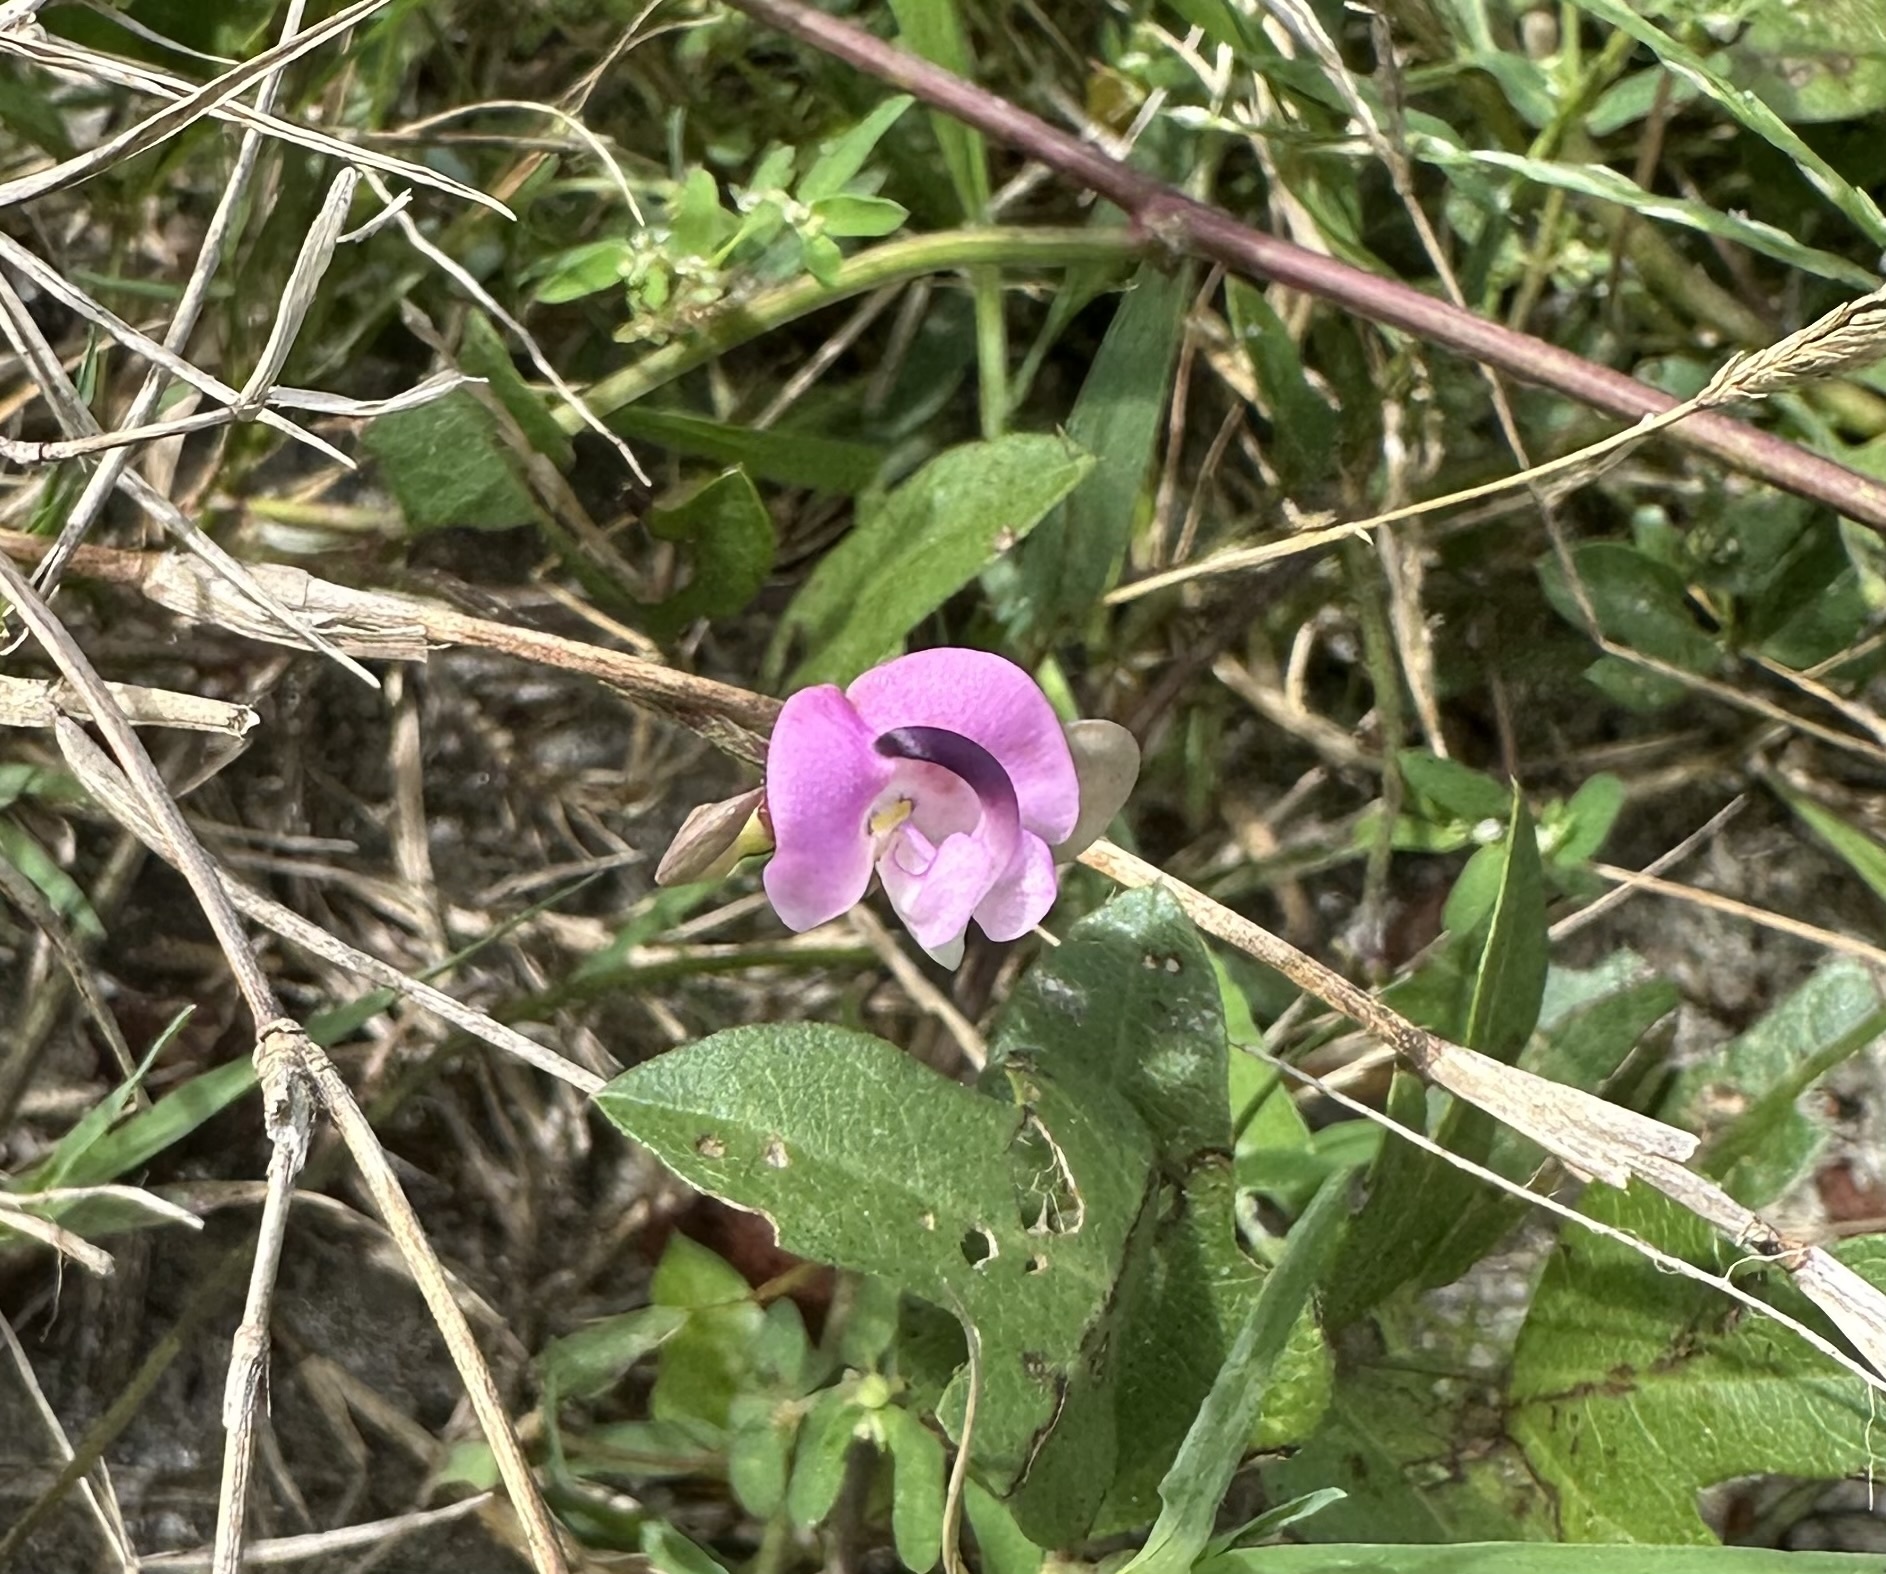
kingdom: Plantae
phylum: Tracheophyta
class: Magnoliopsida
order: Fabales
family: Fabaceae
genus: Strophostyles
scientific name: Strophostyles helvola
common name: Trailing wild bean
